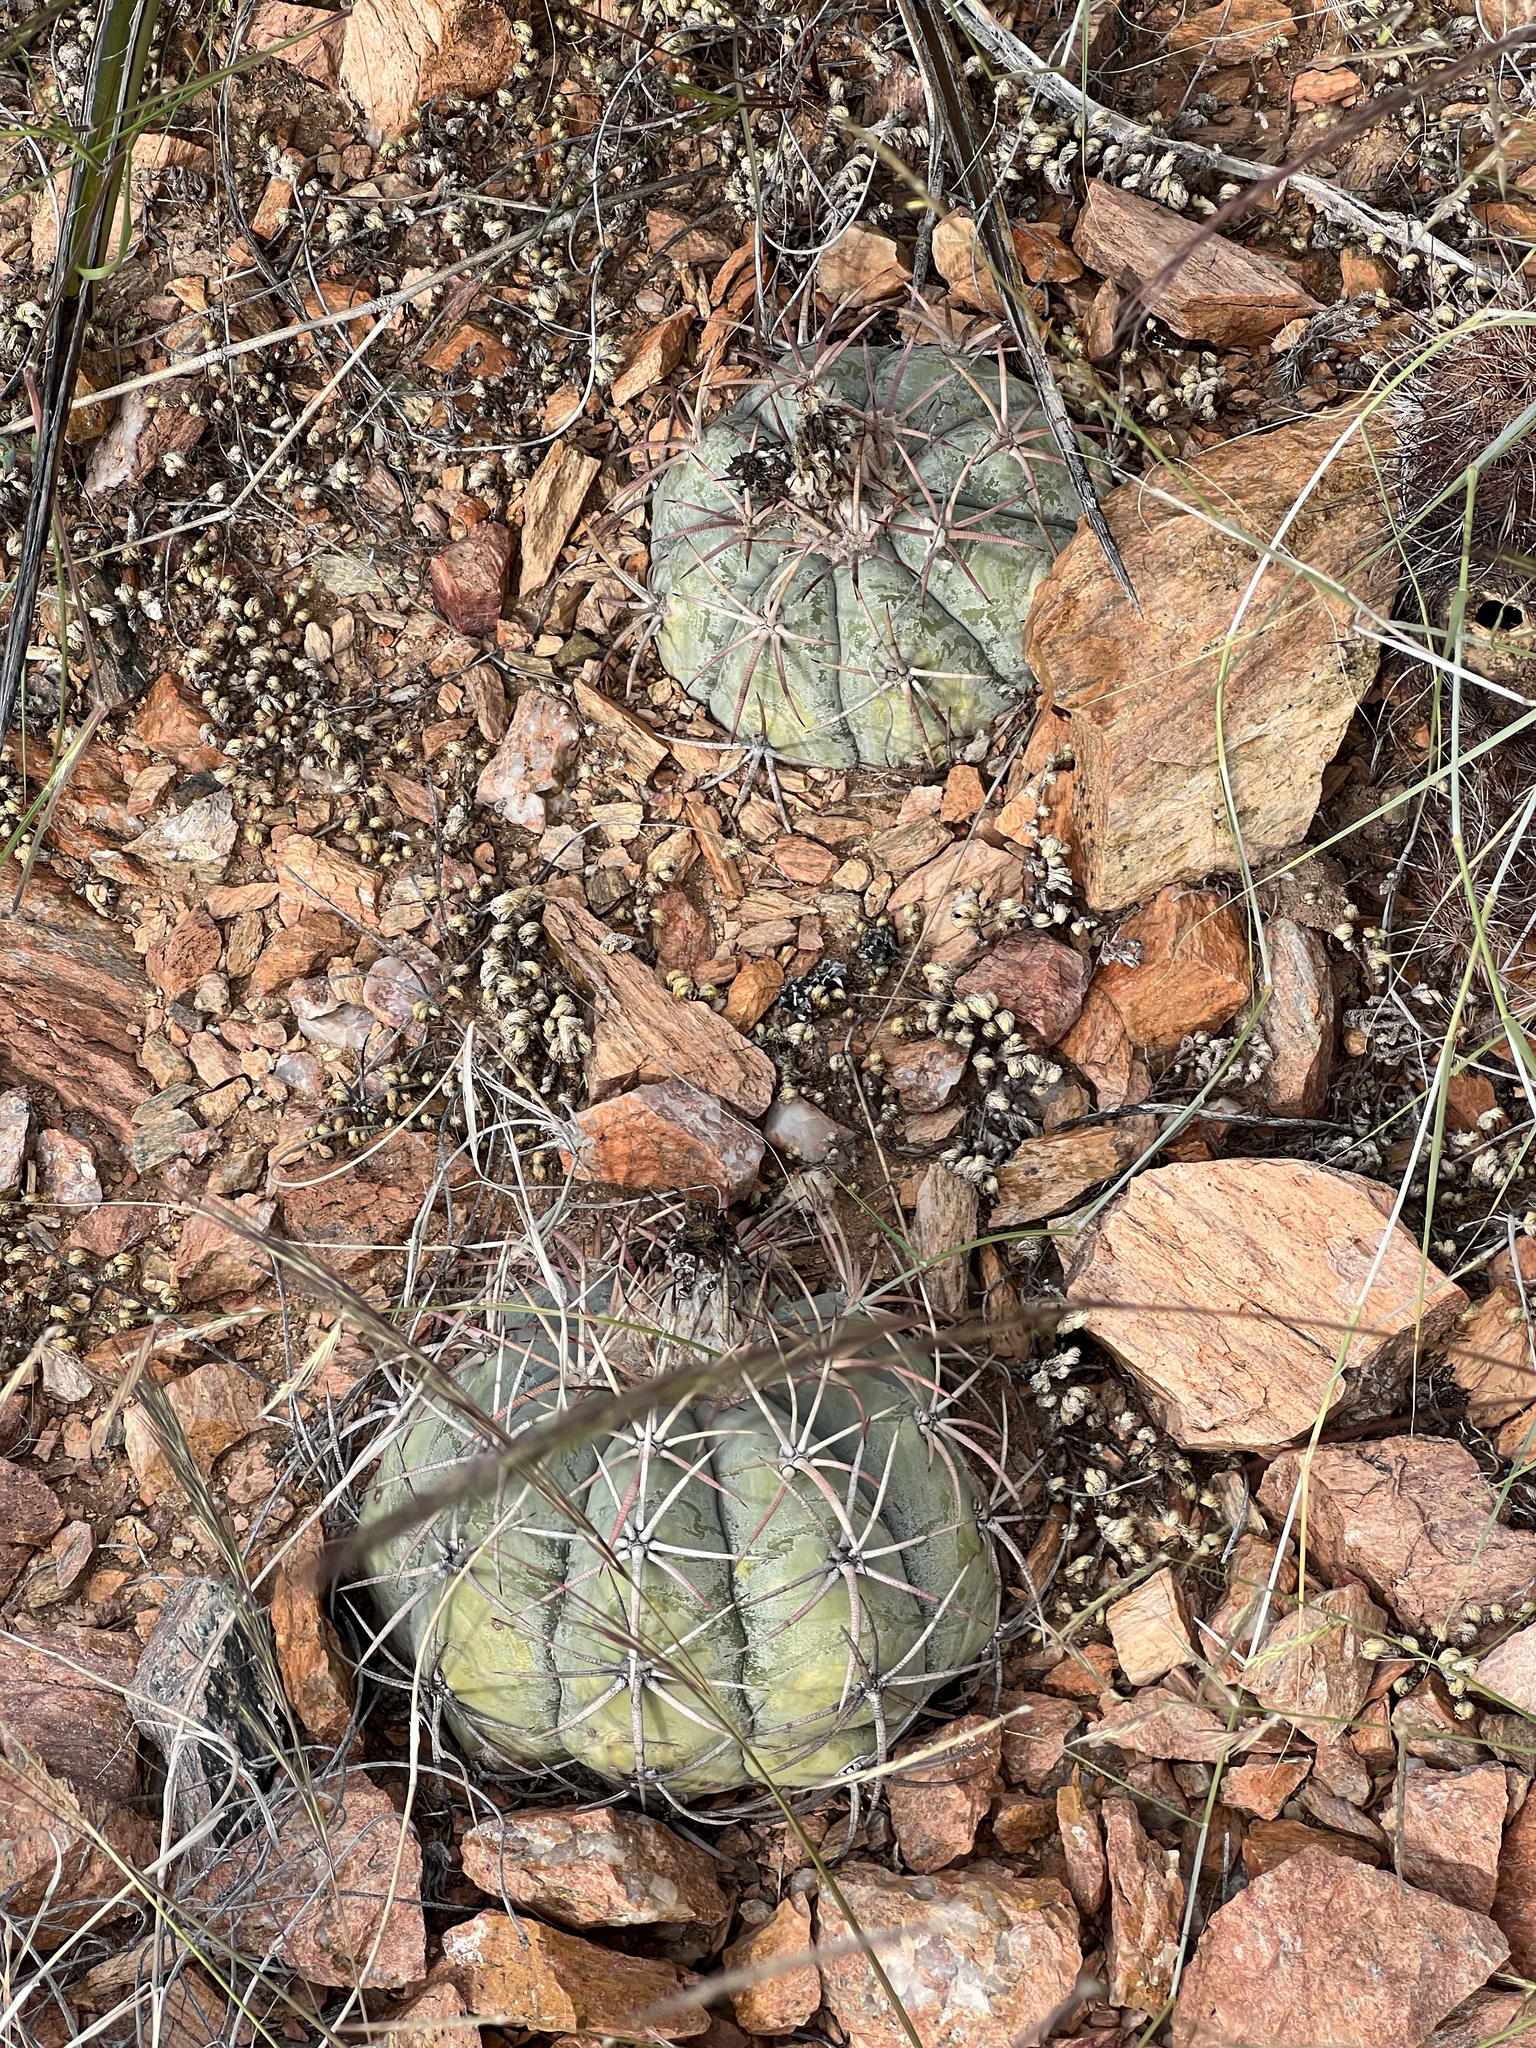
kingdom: Plantae
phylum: Tracheophyta
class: Magnoliopsida
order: Caryophyllales
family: Cactaceae
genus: Echinocactus
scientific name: Echinocactus horizonthalonius
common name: Devilshead
